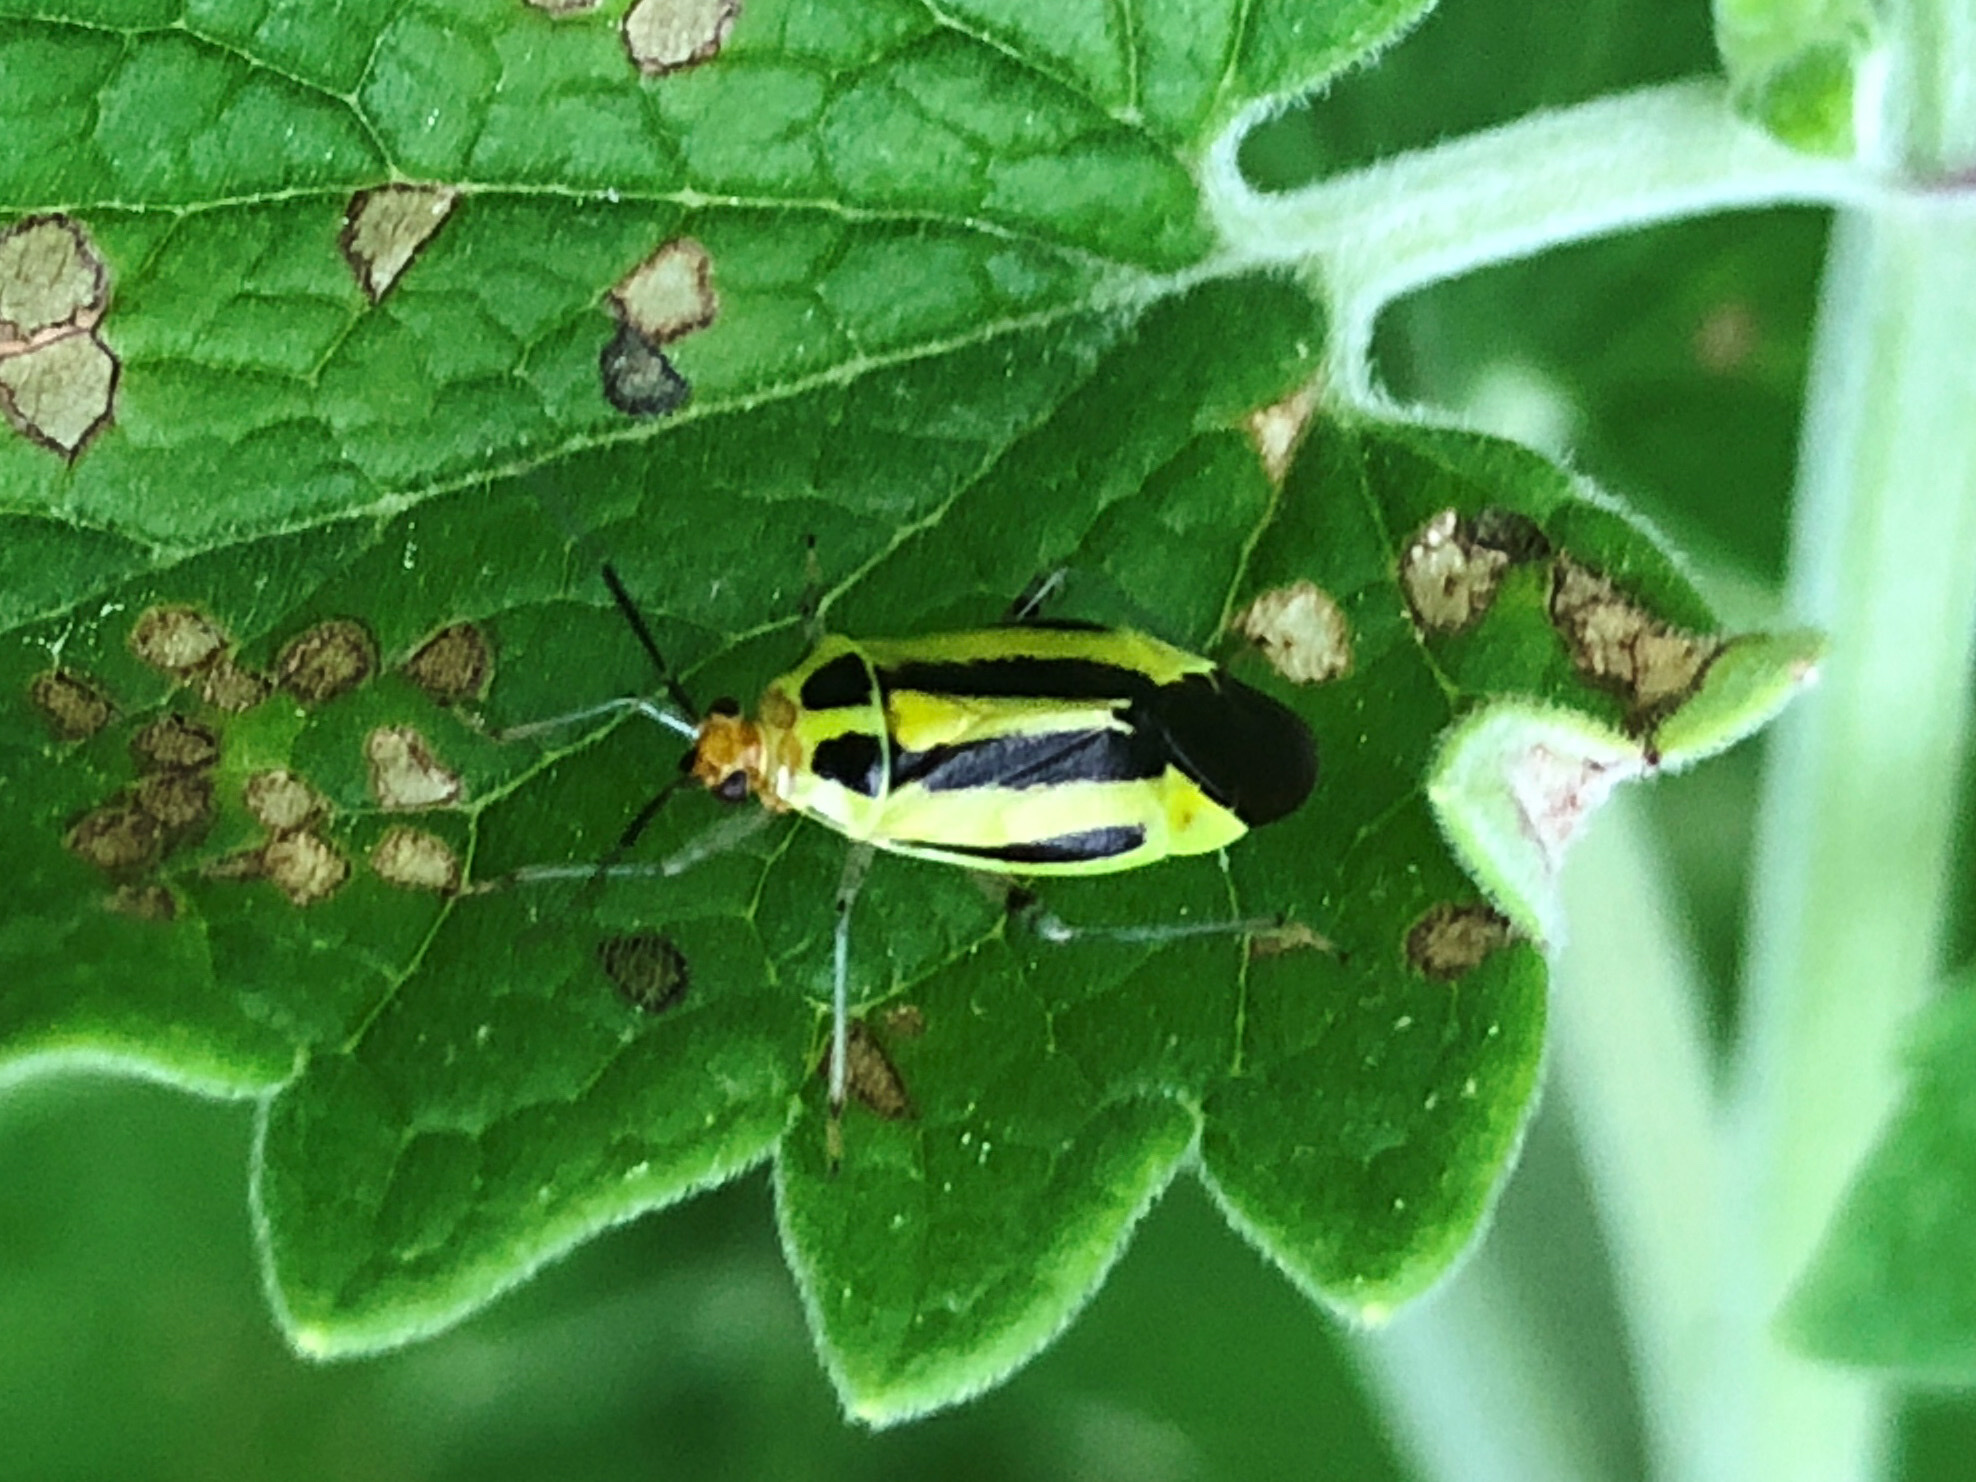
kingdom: Animalia
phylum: Arthropoda
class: Insecta
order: Hemiptera
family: Miridae
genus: Poecilocapsus
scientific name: Poecilocapsus lineatus
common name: Four-lined plant bug
